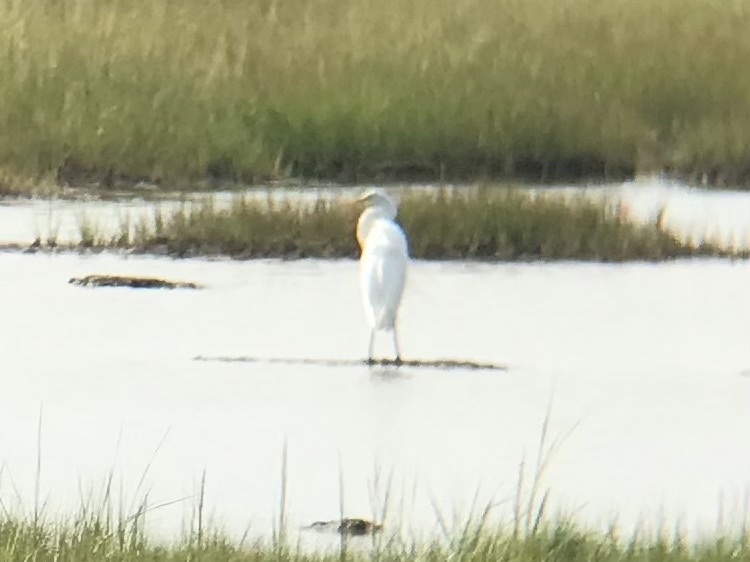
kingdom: Animalia
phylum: Chordata
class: Aves
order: Pelecaniformes
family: Ardeidae
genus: Ardea
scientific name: Ardea alba
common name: Great egret
